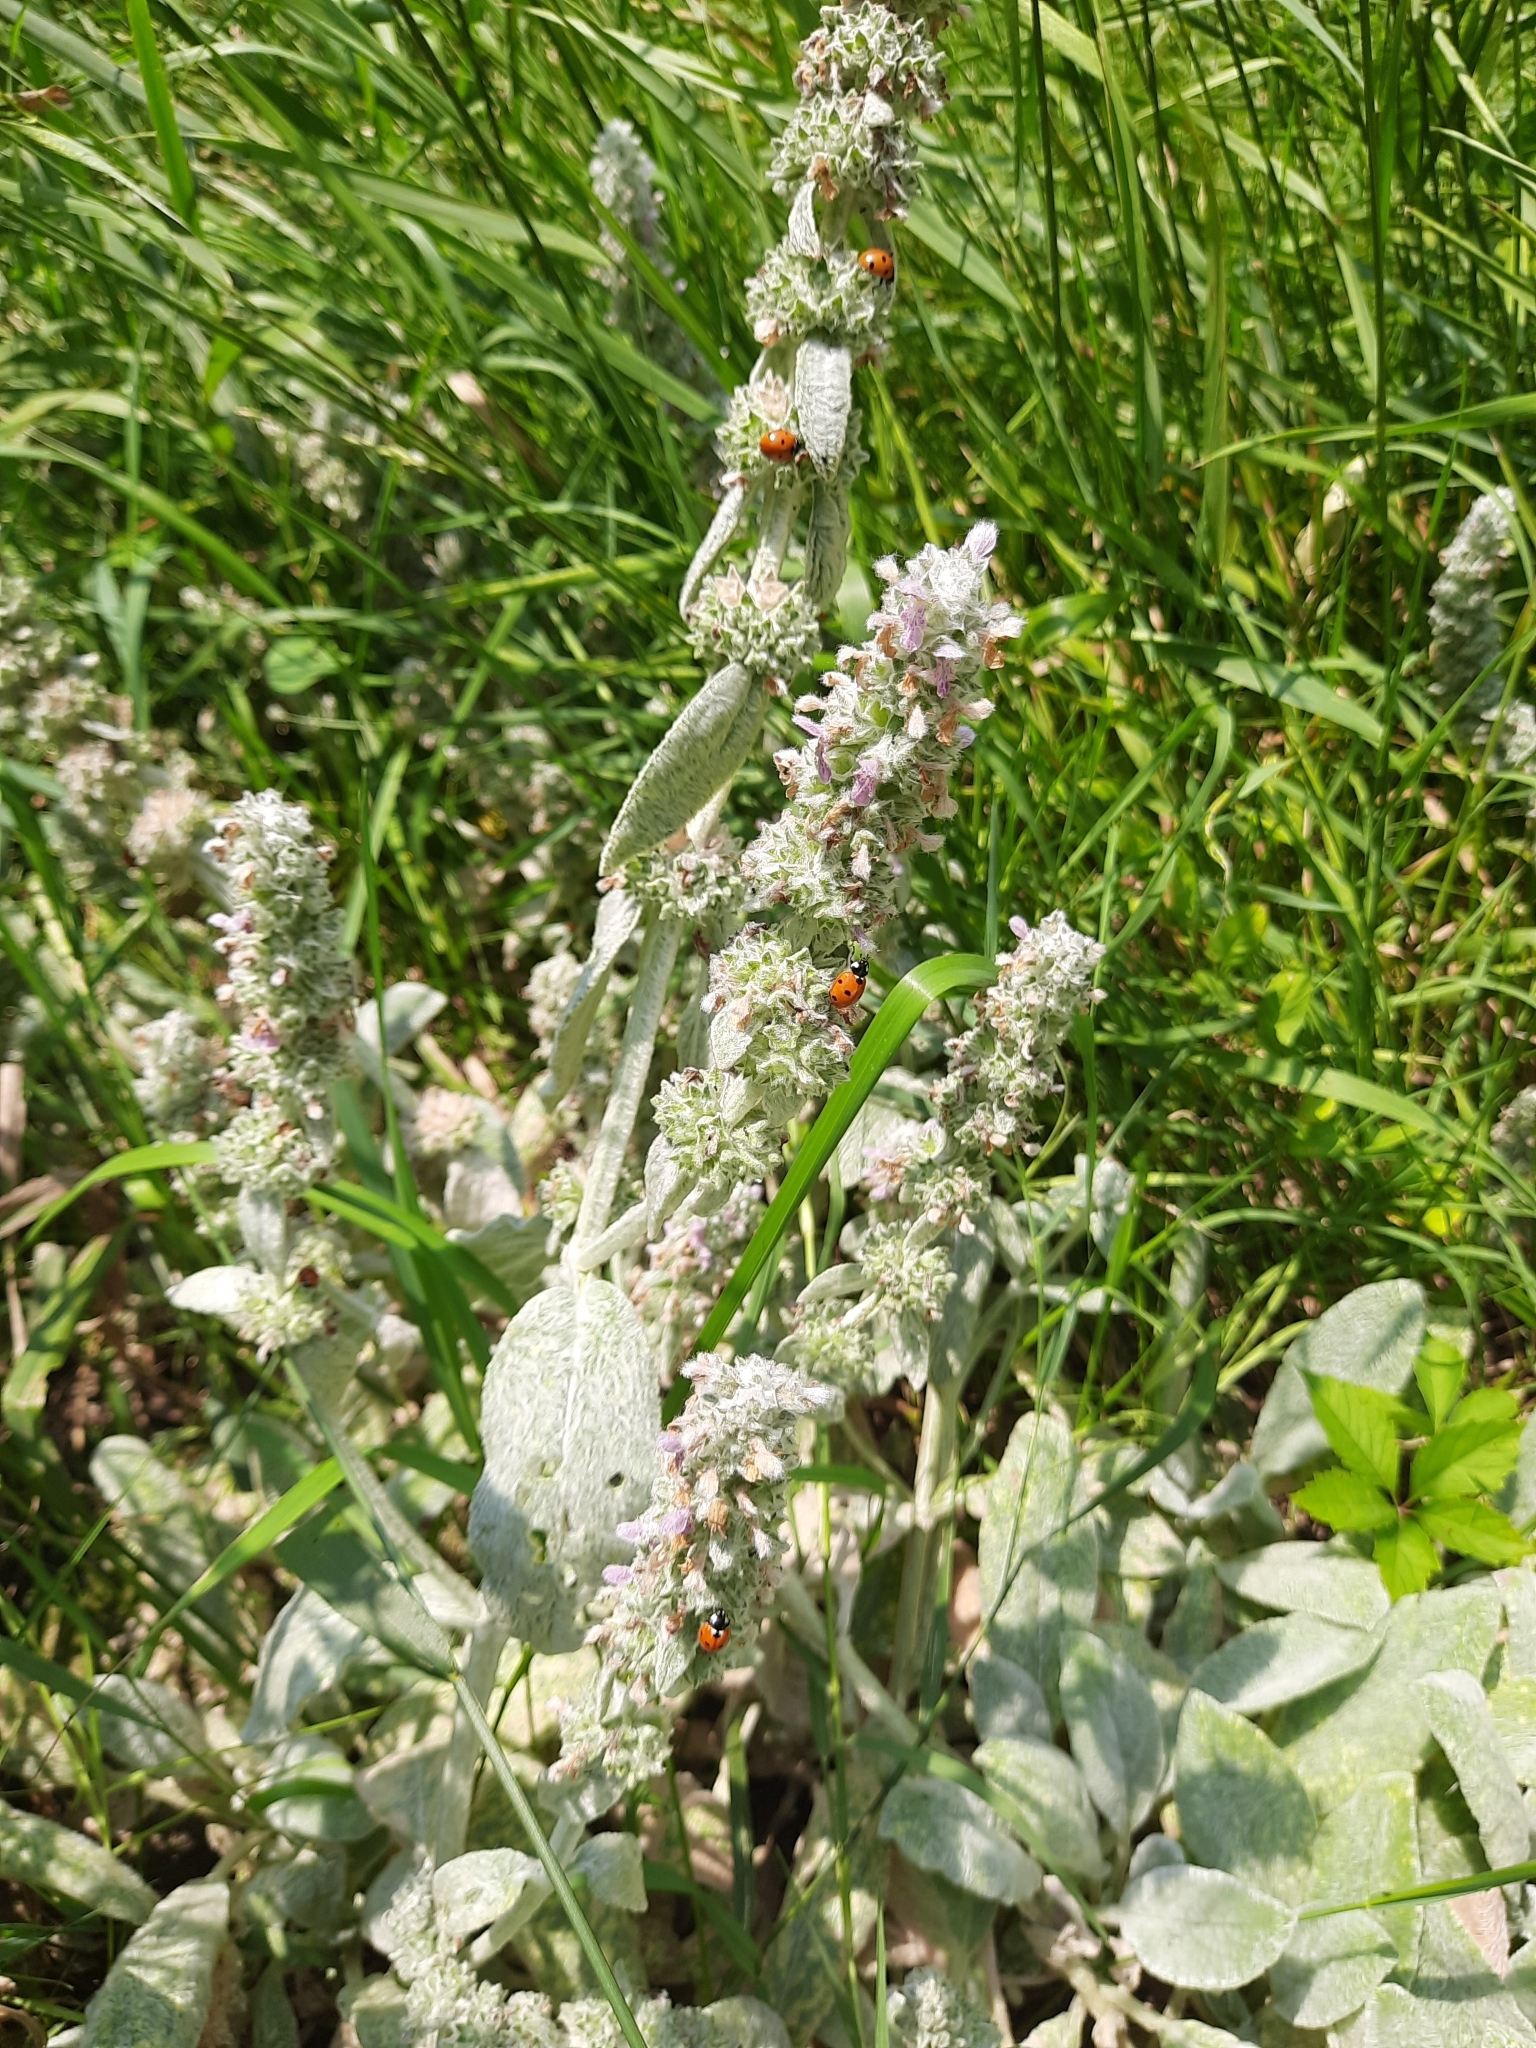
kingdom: Plantae
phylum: Tracheophyta
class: Magnoliopsida
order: Lamiales
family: Lamiaceae
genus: Stachys
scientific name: Stachys byzantina
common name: Lamb's-ear
